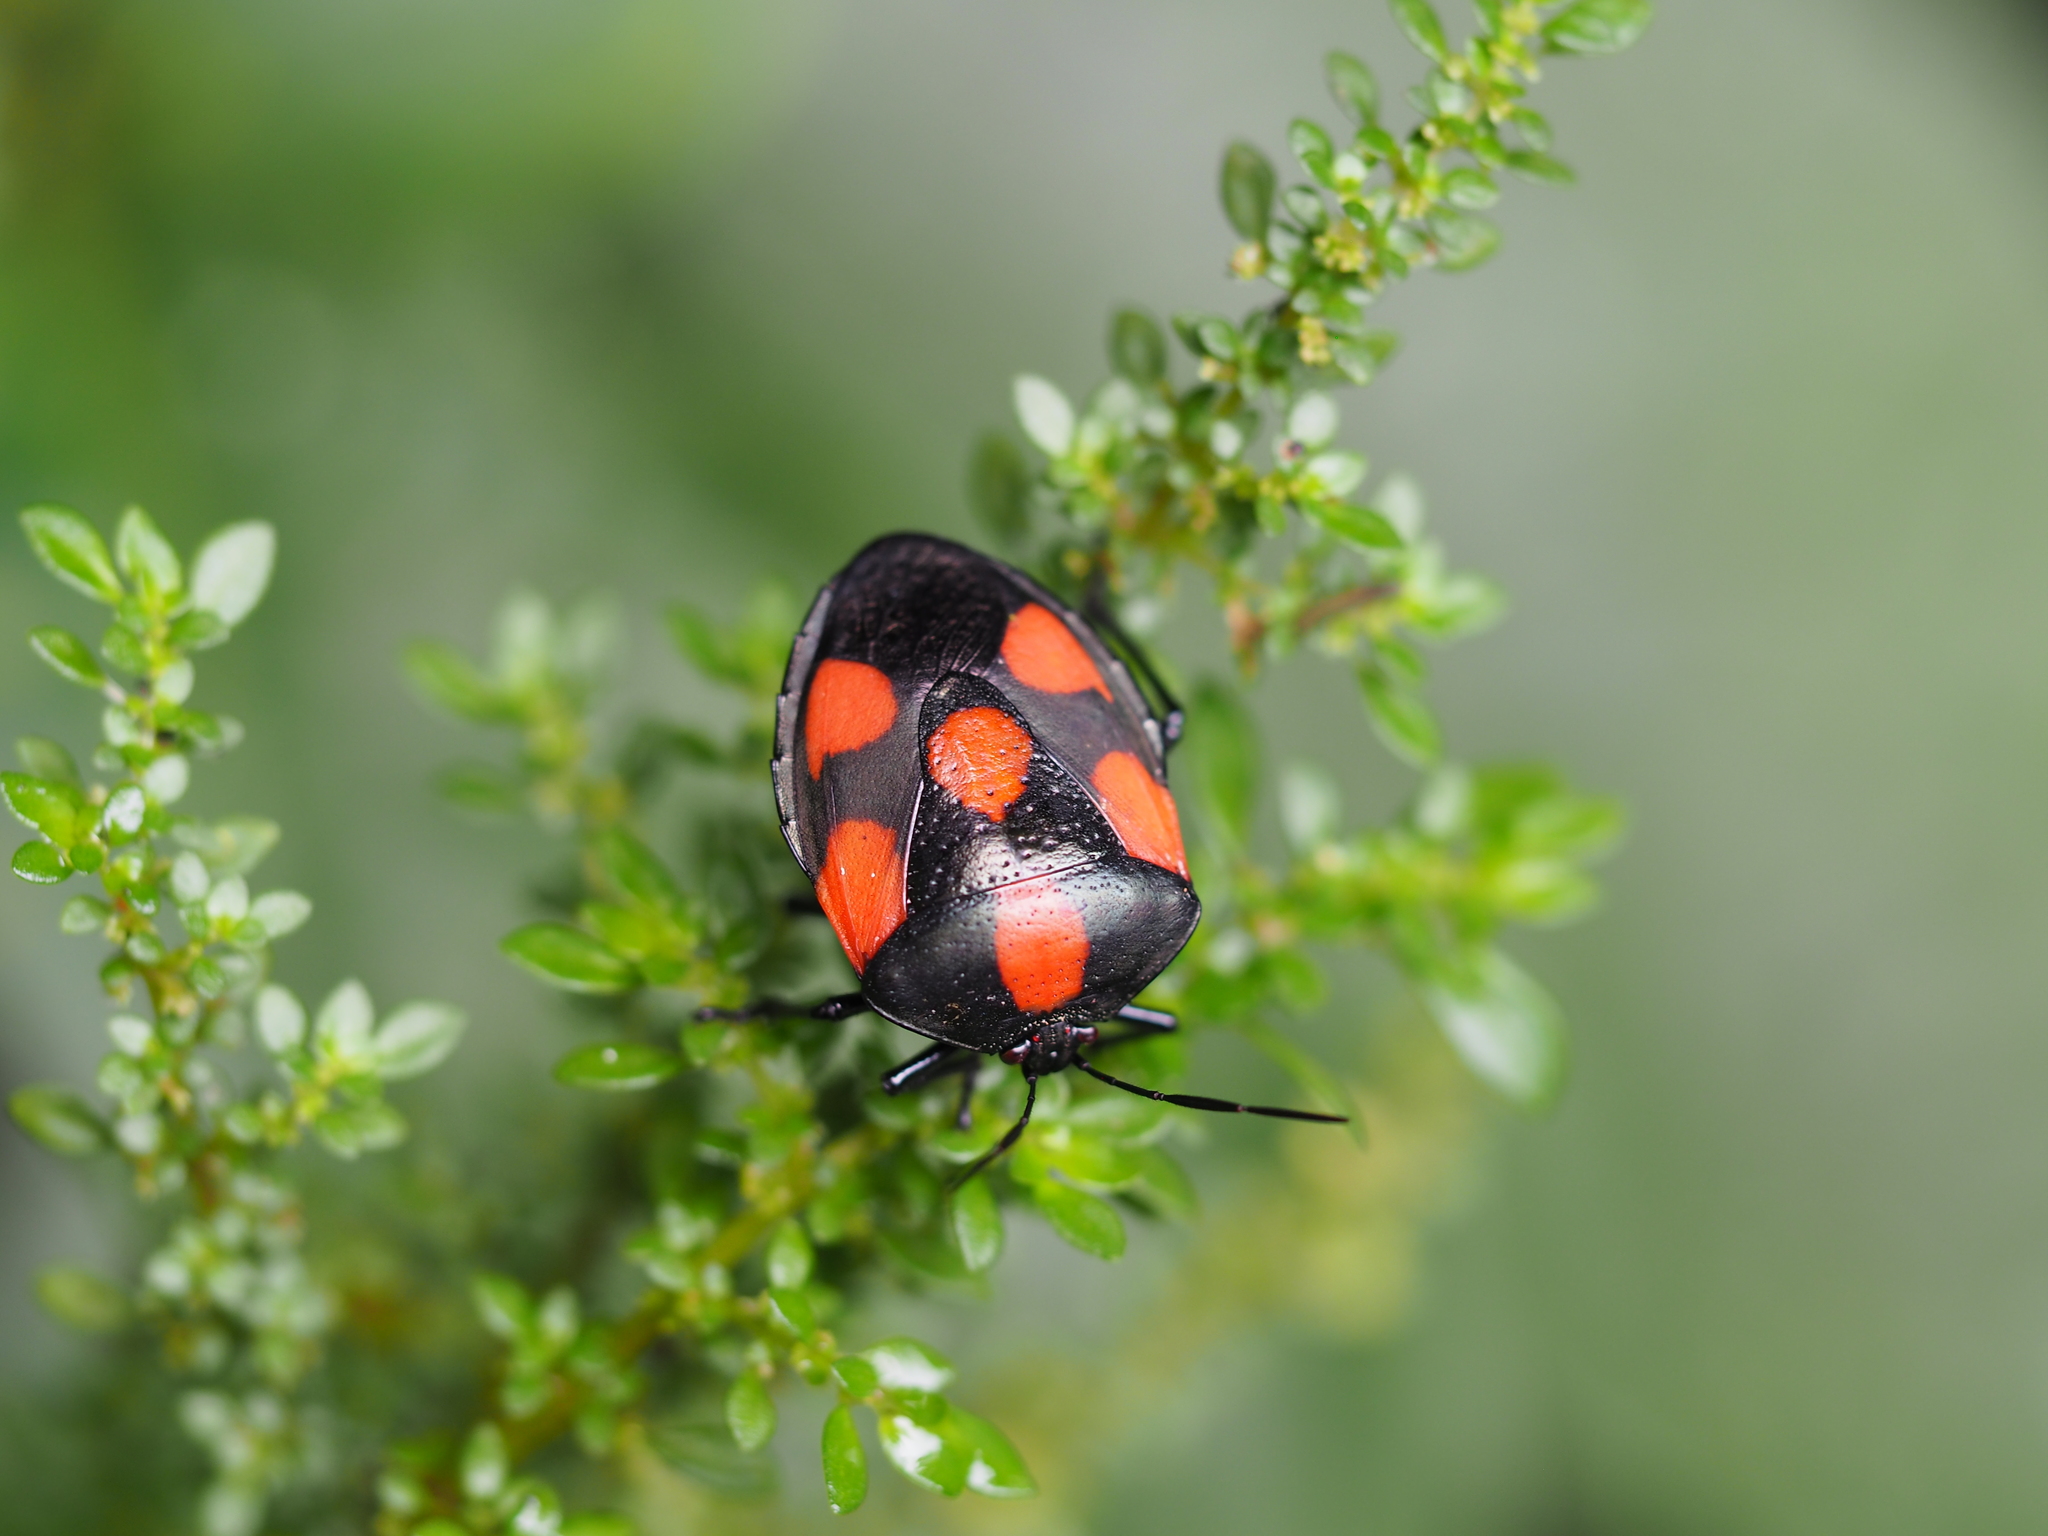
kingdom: Animalia
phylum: Arthropoda
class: Insecta
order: Hemiptera
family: Pentatomidae
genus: Brachystethus
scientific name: Brachystethus rubromaculatus
